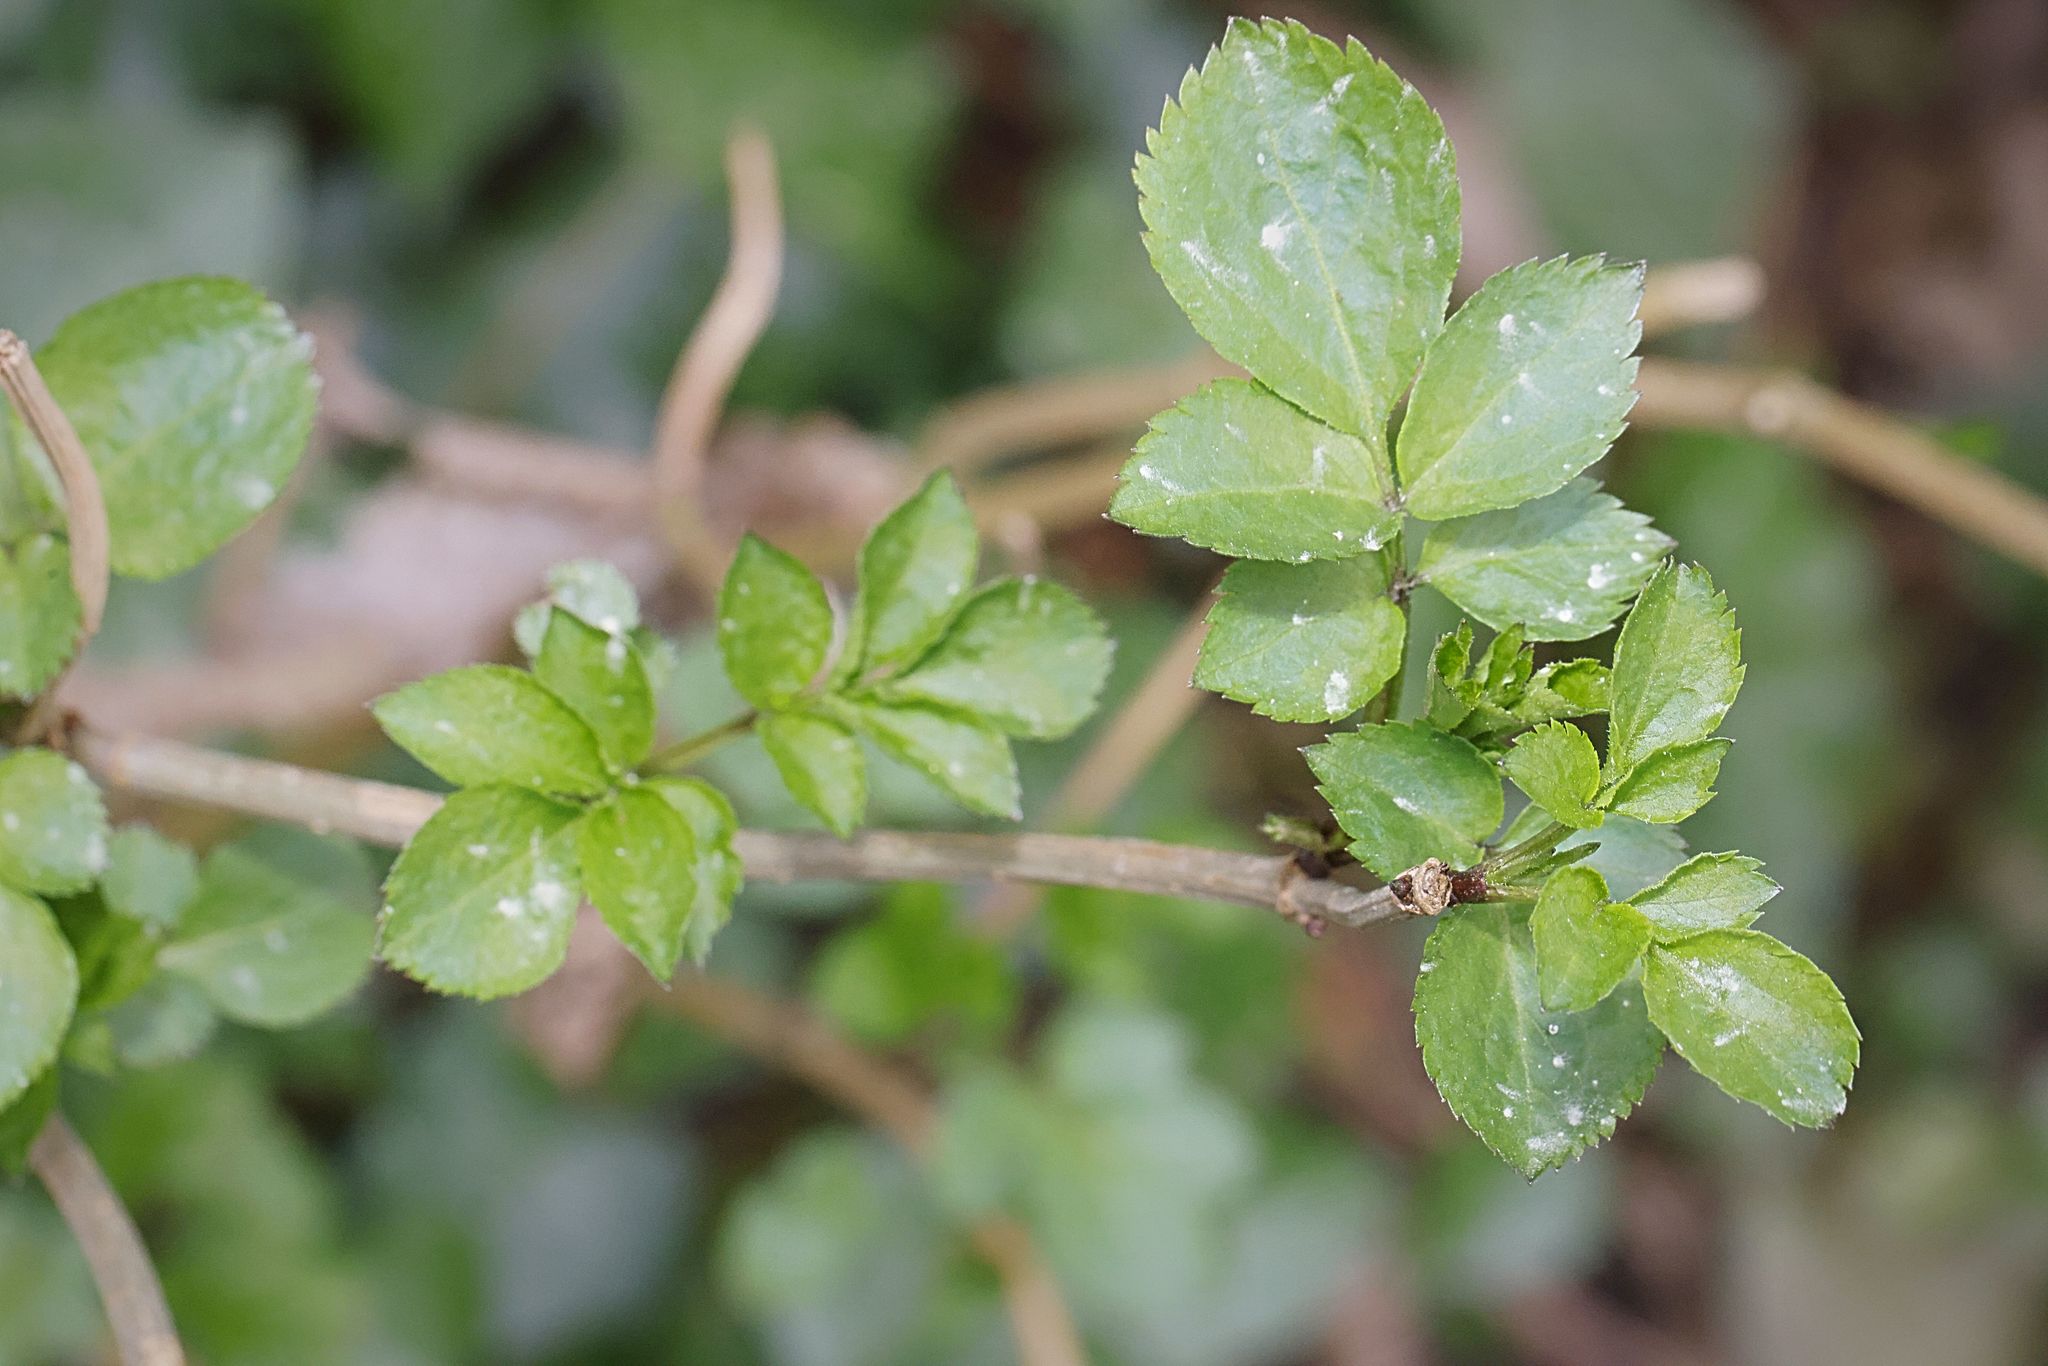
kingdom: Plantae
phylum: Tracheophyta
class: Magnoliopsida
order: Dipsacales
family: Viburnaceae
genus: Sambucus
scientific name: Sambucus nigra
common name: Elder
